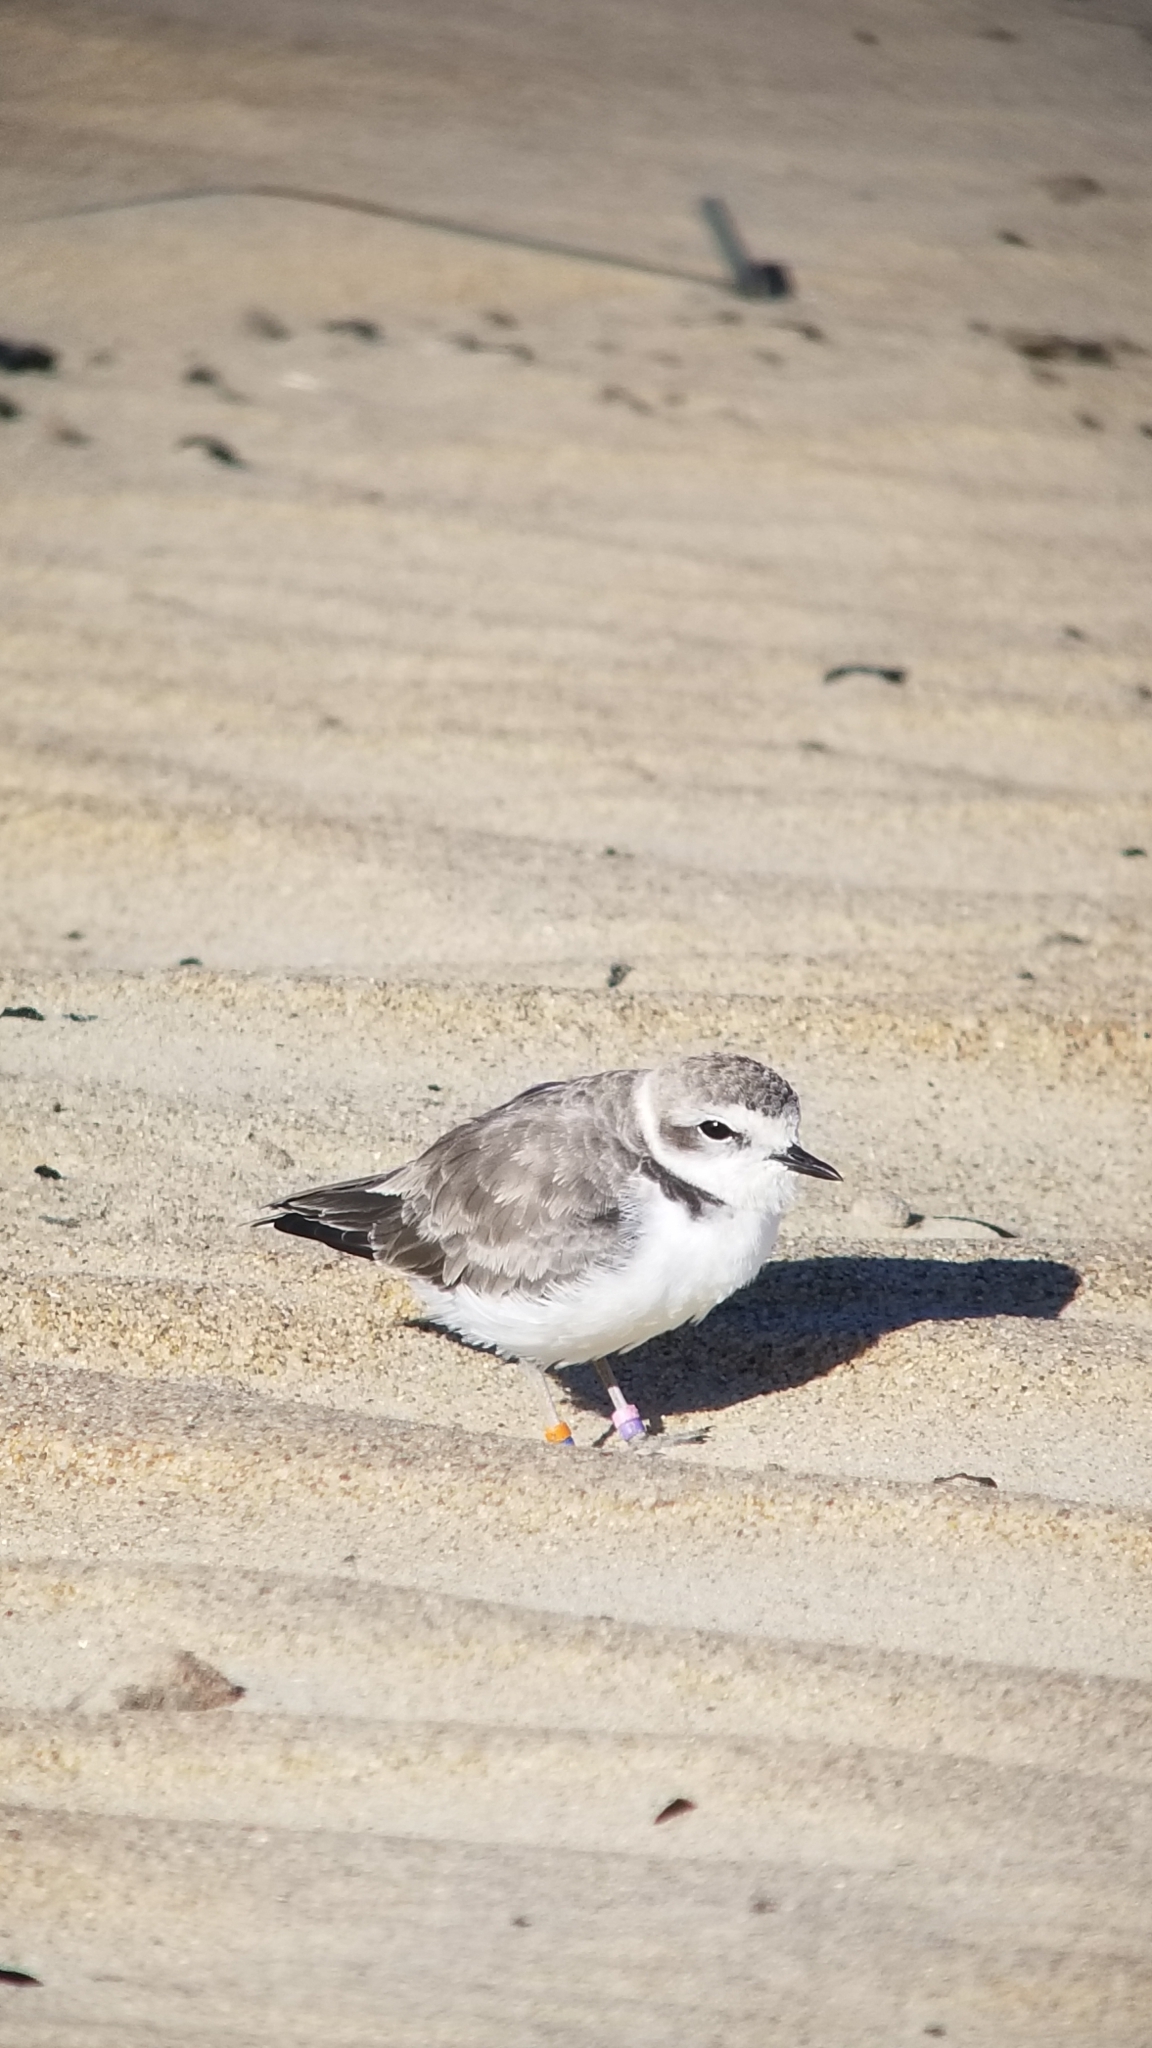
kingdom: Animalia
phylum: Chordata
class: Aves
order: Charadriiformes
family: Charadriidae
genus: Anarhynchus
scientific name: Anarhynchus
